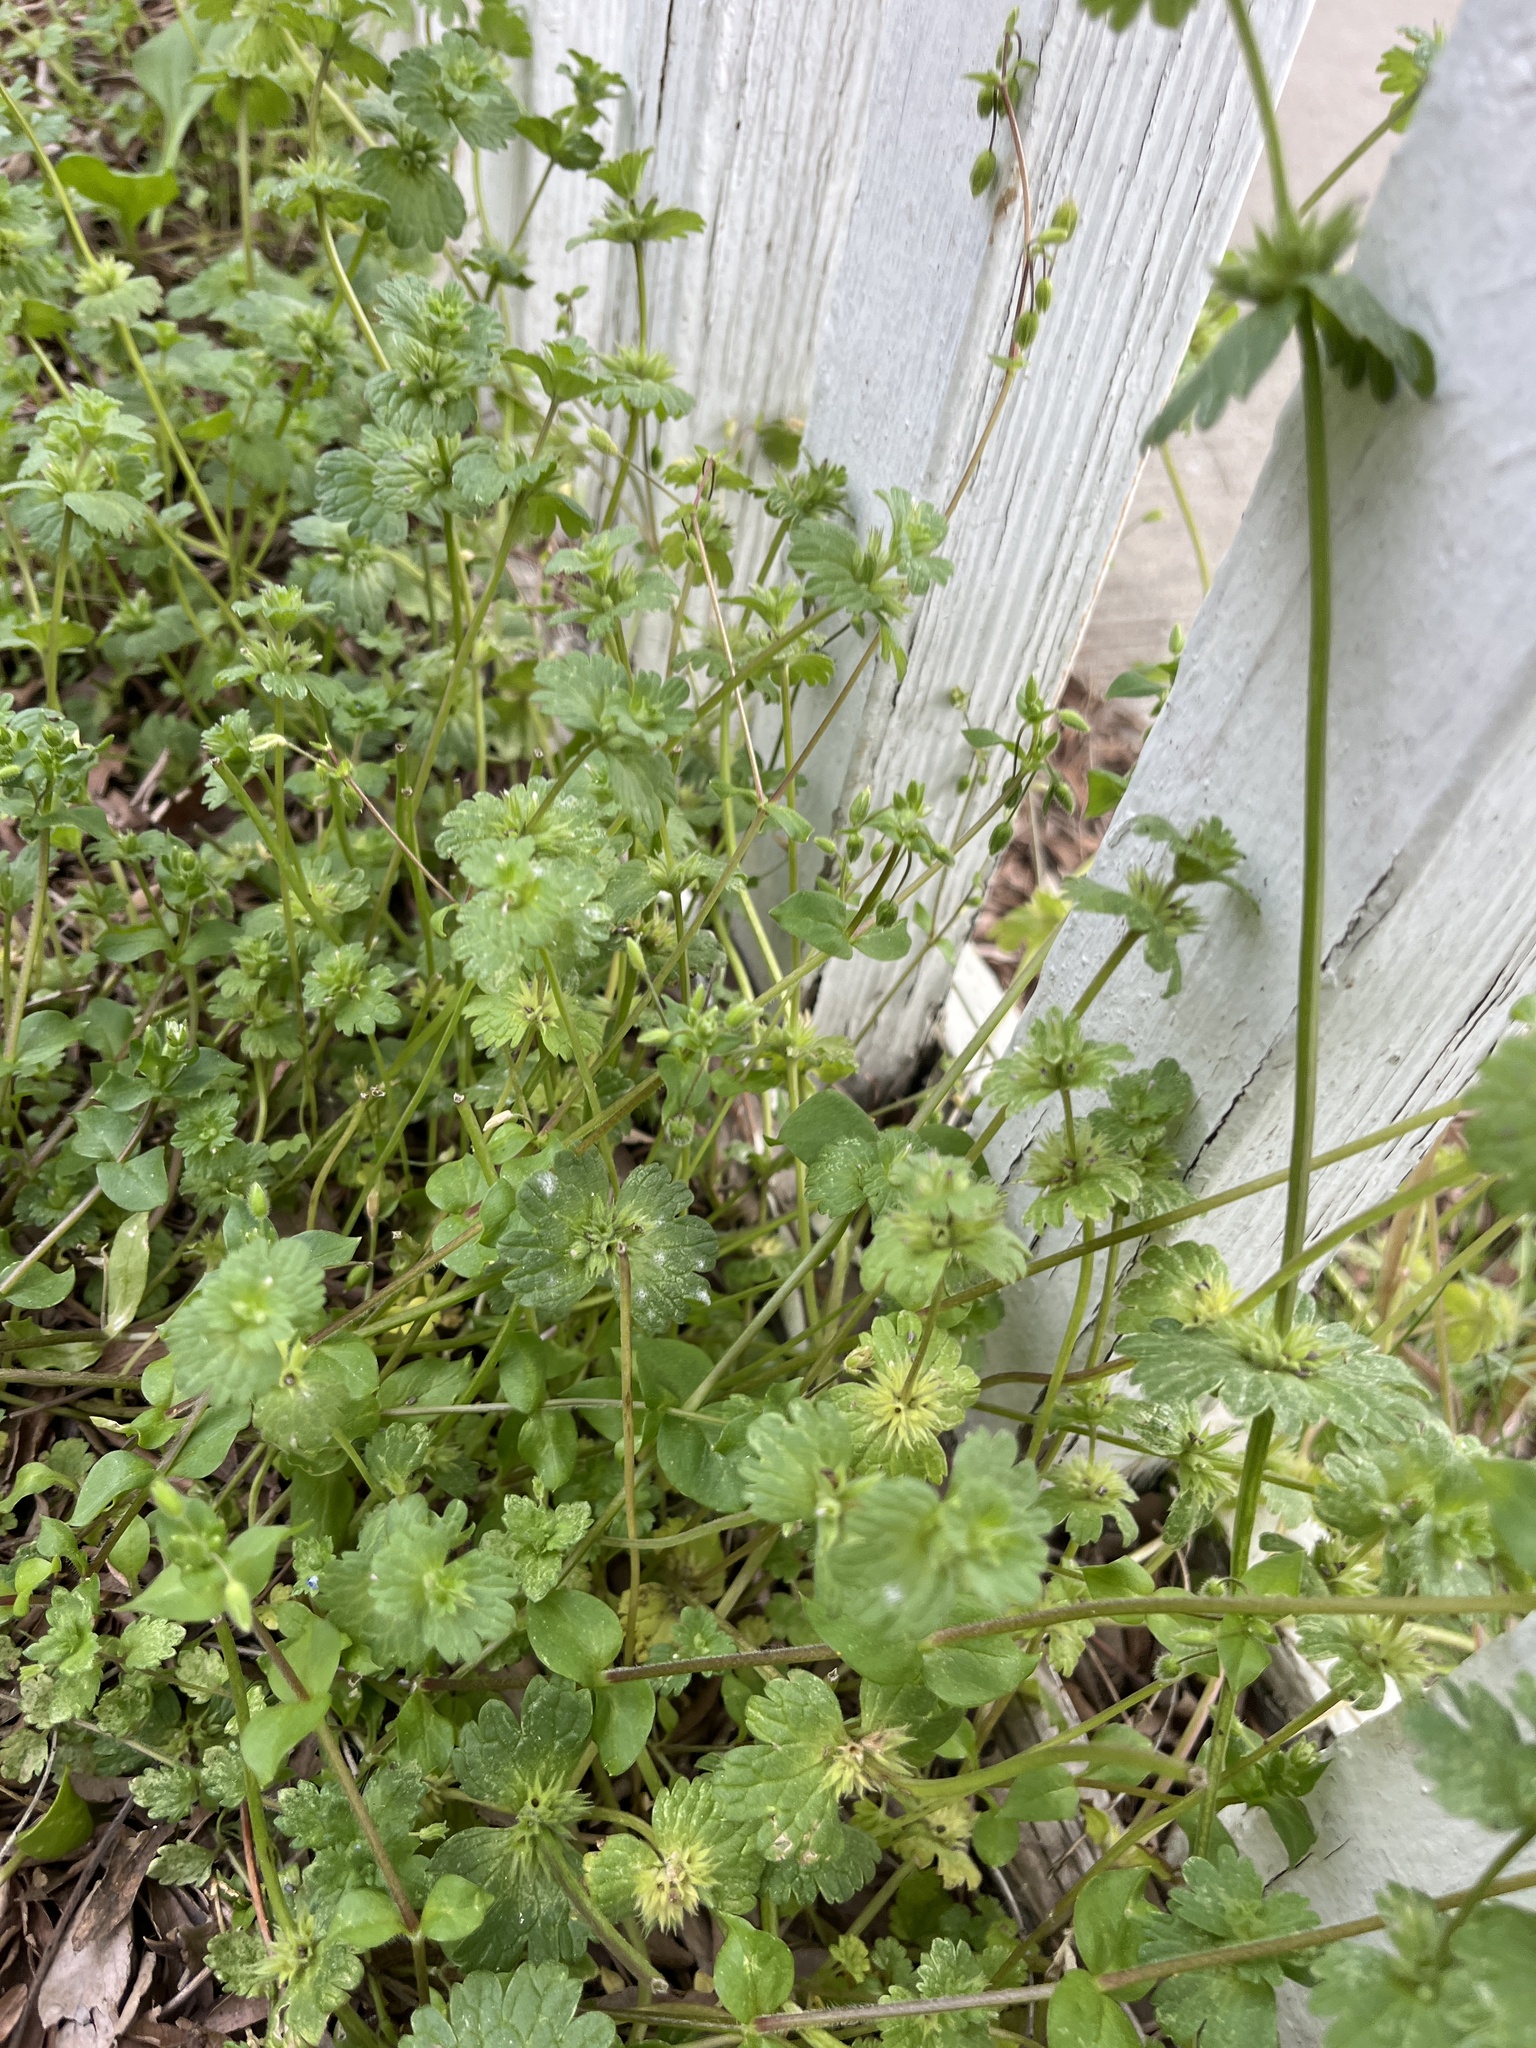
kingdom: Plantae
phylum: Tracheophyta
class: Magnoliopsida
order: Lamiales
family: Lamiaceae
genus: Lamium
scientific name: Lamium amplexicaule
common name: Henbit dead-nettle
